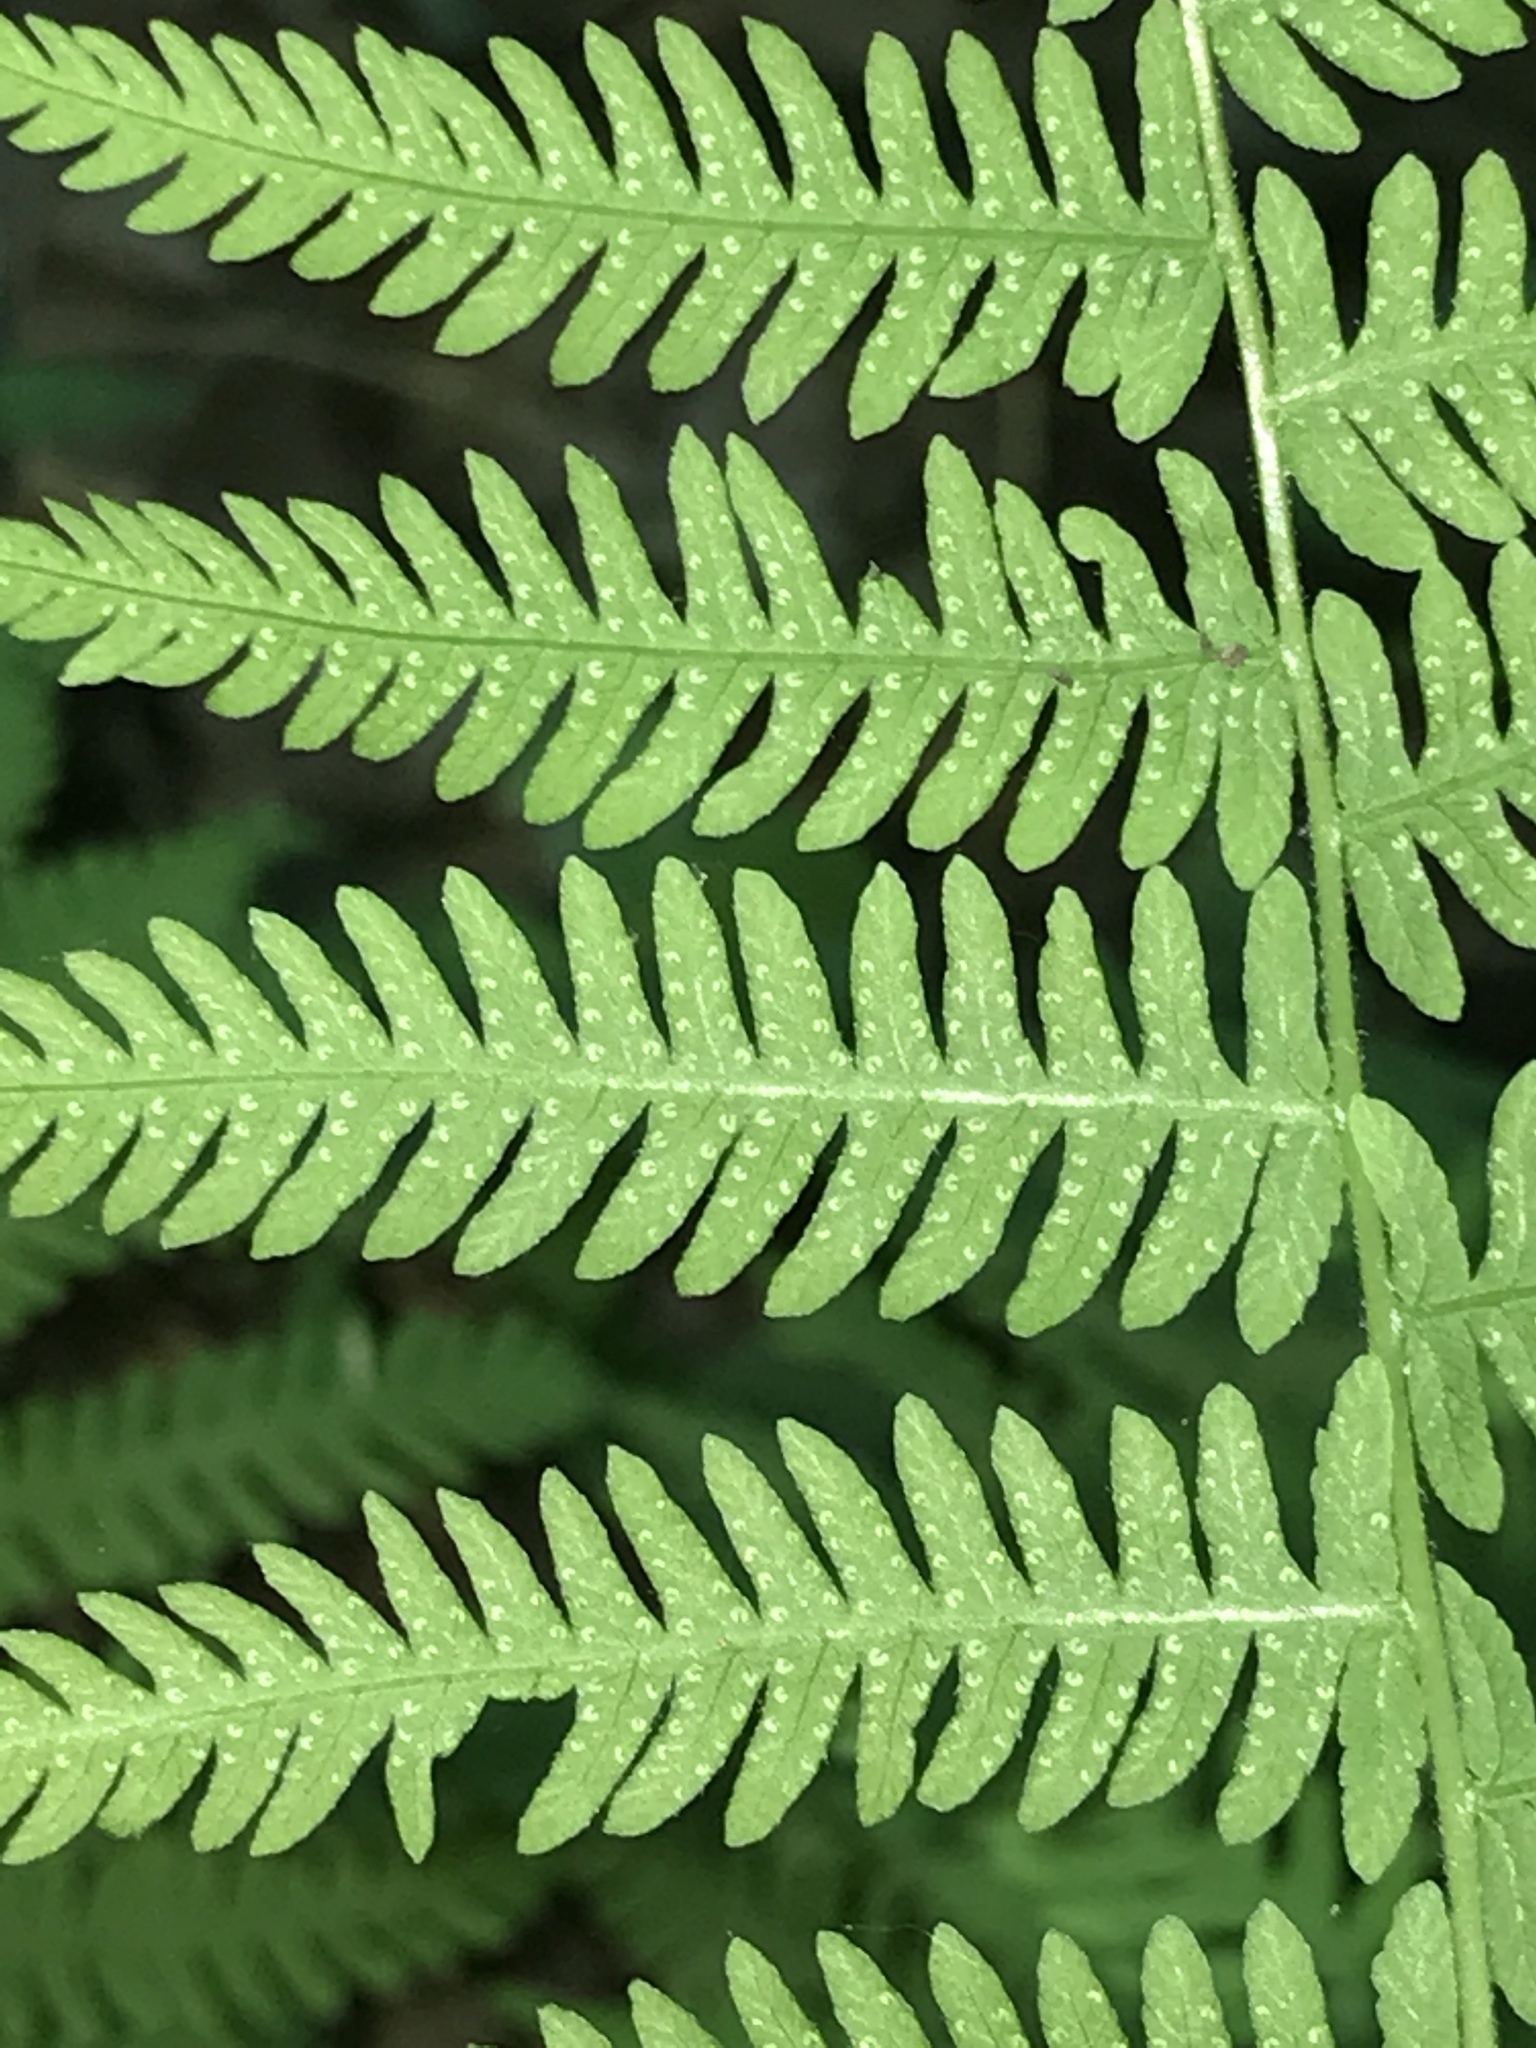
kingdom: Plantae
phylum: Tracheophyta
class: Polypodiopsida
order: Polypodiales
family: Thelypteridaceae
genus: Amauropelta
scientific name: Amauropelta noveboracensis
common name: New york fern
